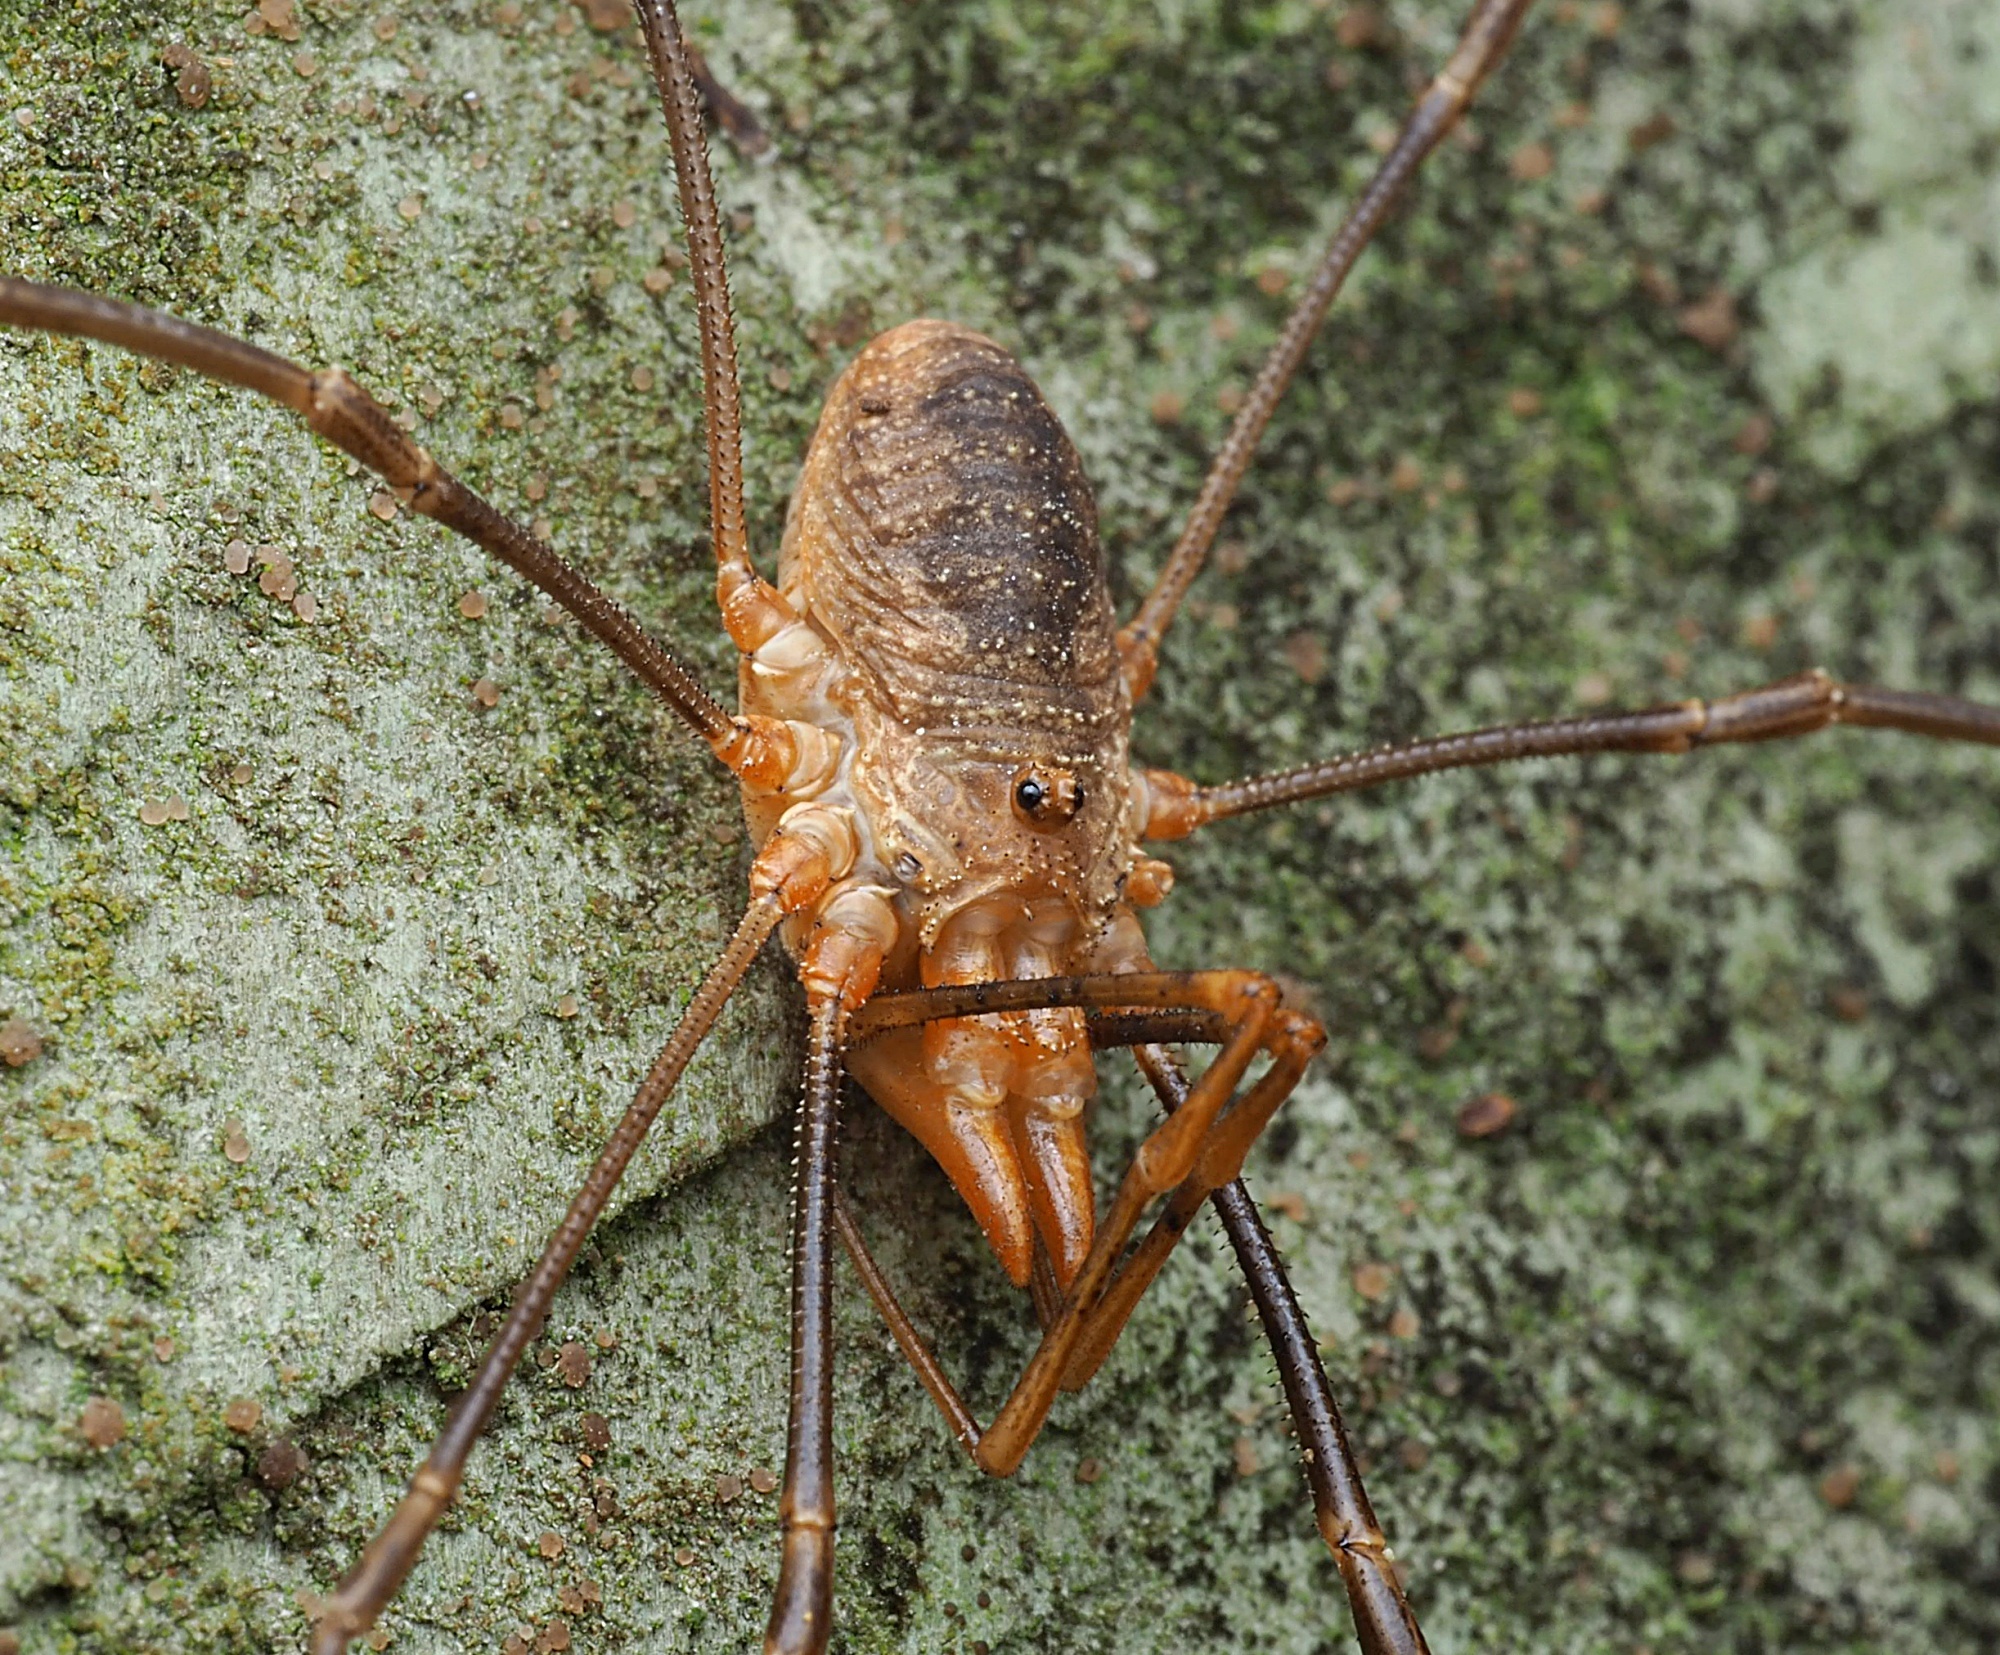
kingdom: Animalia
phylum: Arthropoda
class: Arachnida
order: Opiliones
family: Phalangiidae
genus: Phalangium
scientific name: Phalangium opilio
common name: Daddy longleg
